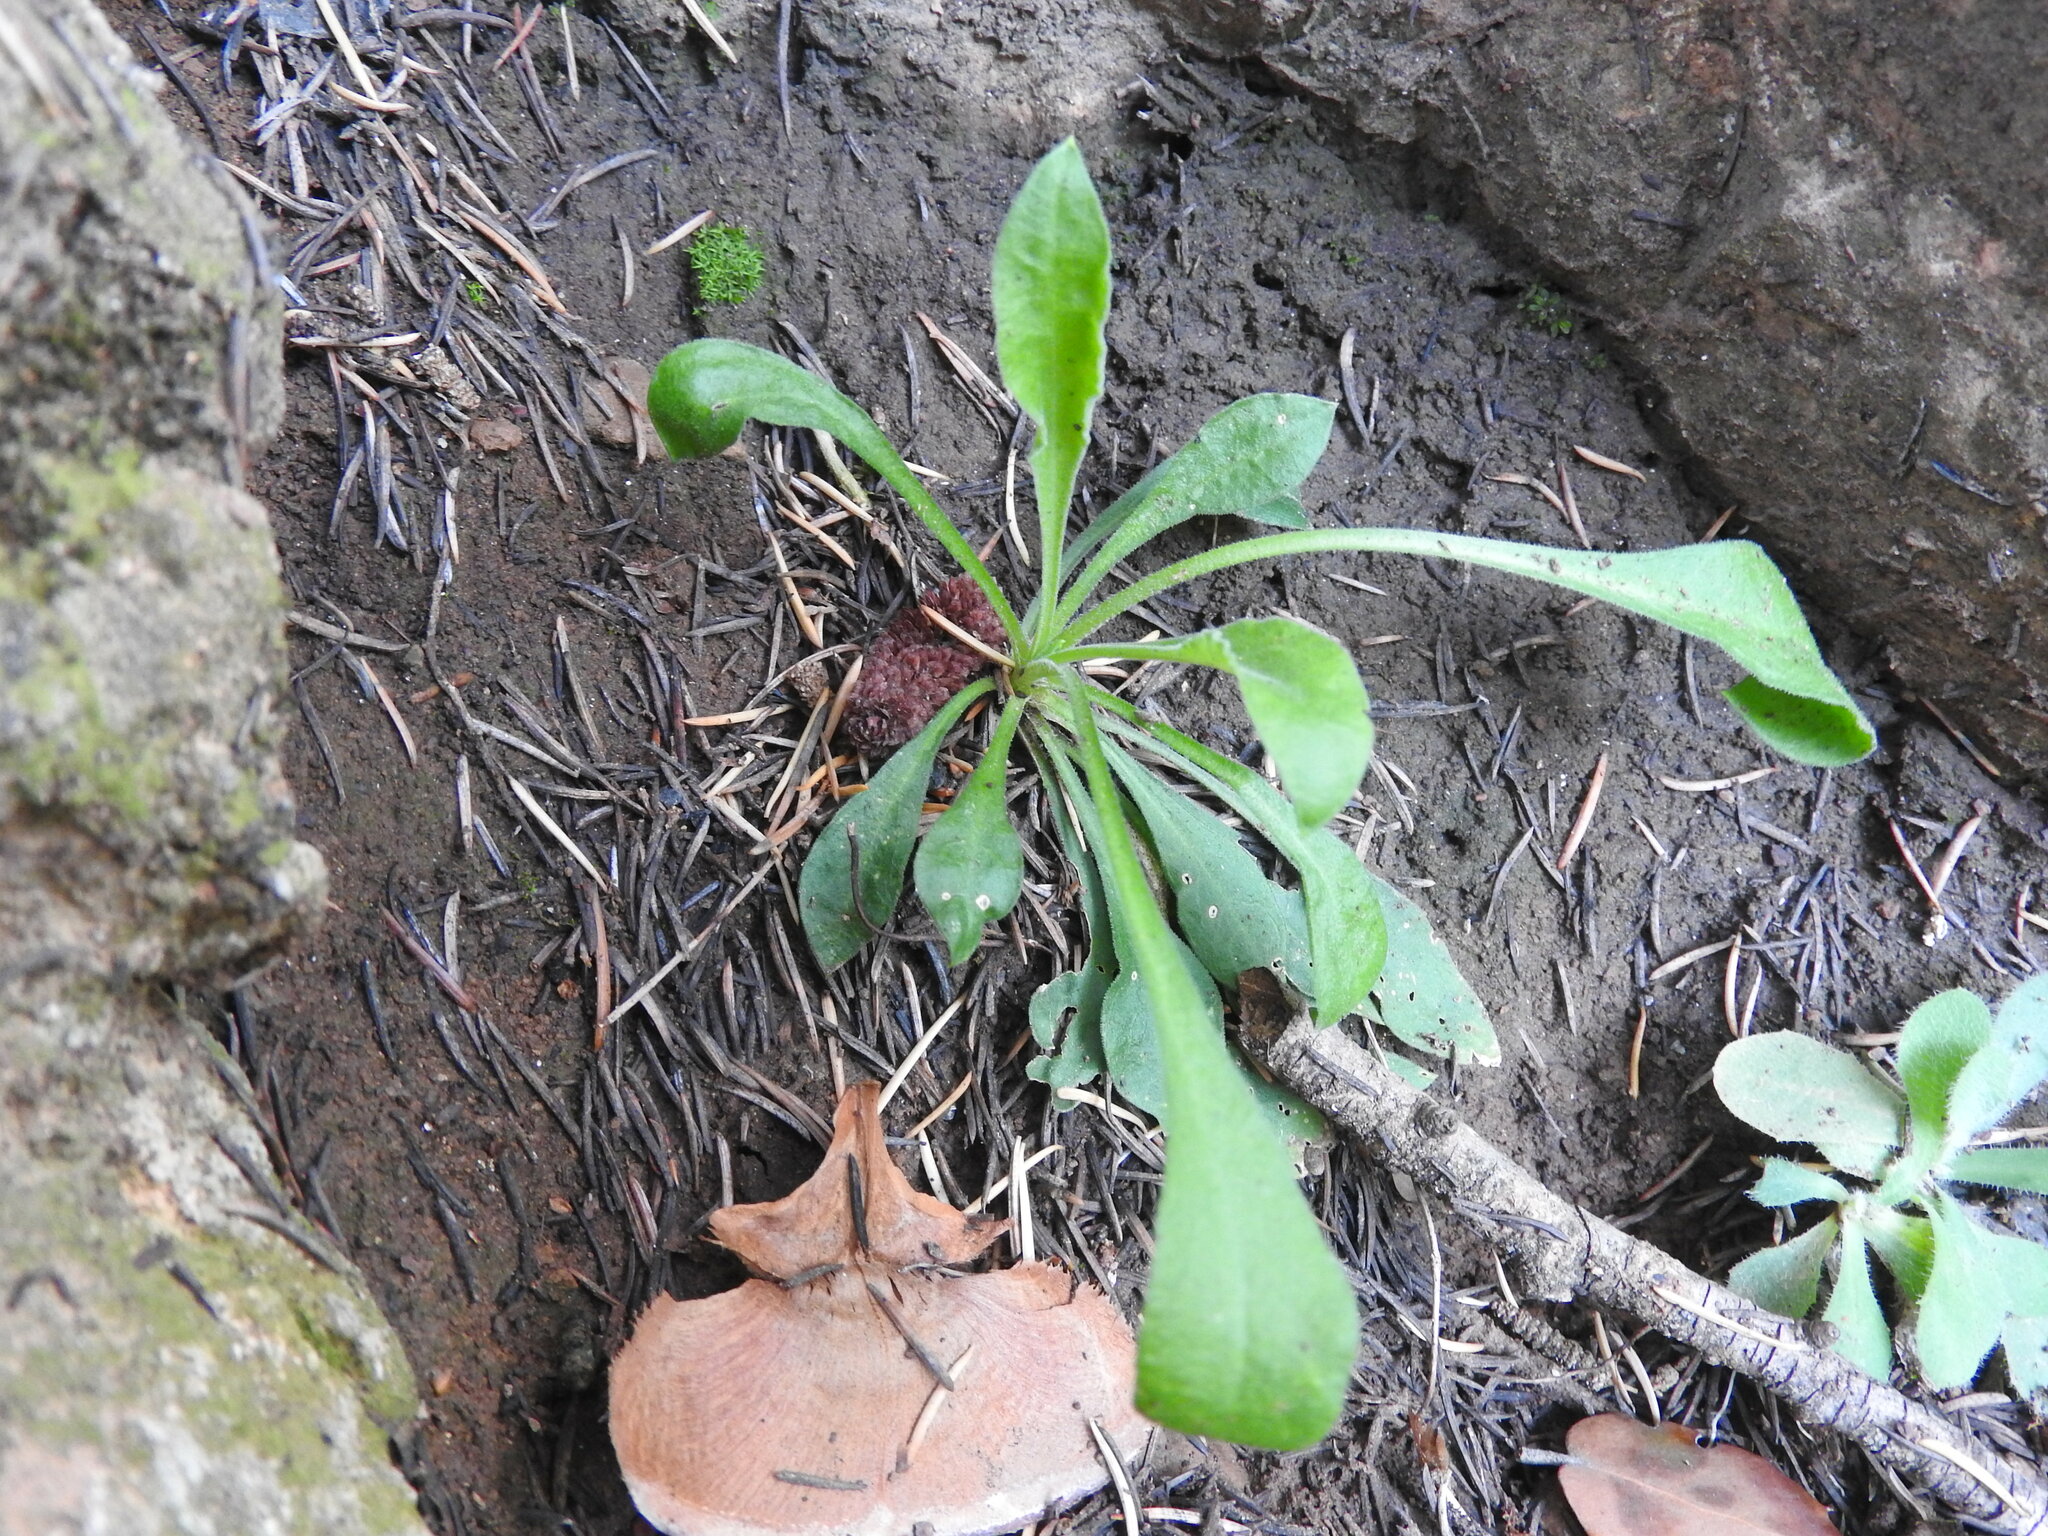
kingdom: Plantae
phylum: Tracheophyta
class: Magnoliopsida
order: Caryophyllales
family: Caryophyllaceae
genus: Silene
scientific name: Silene patula
